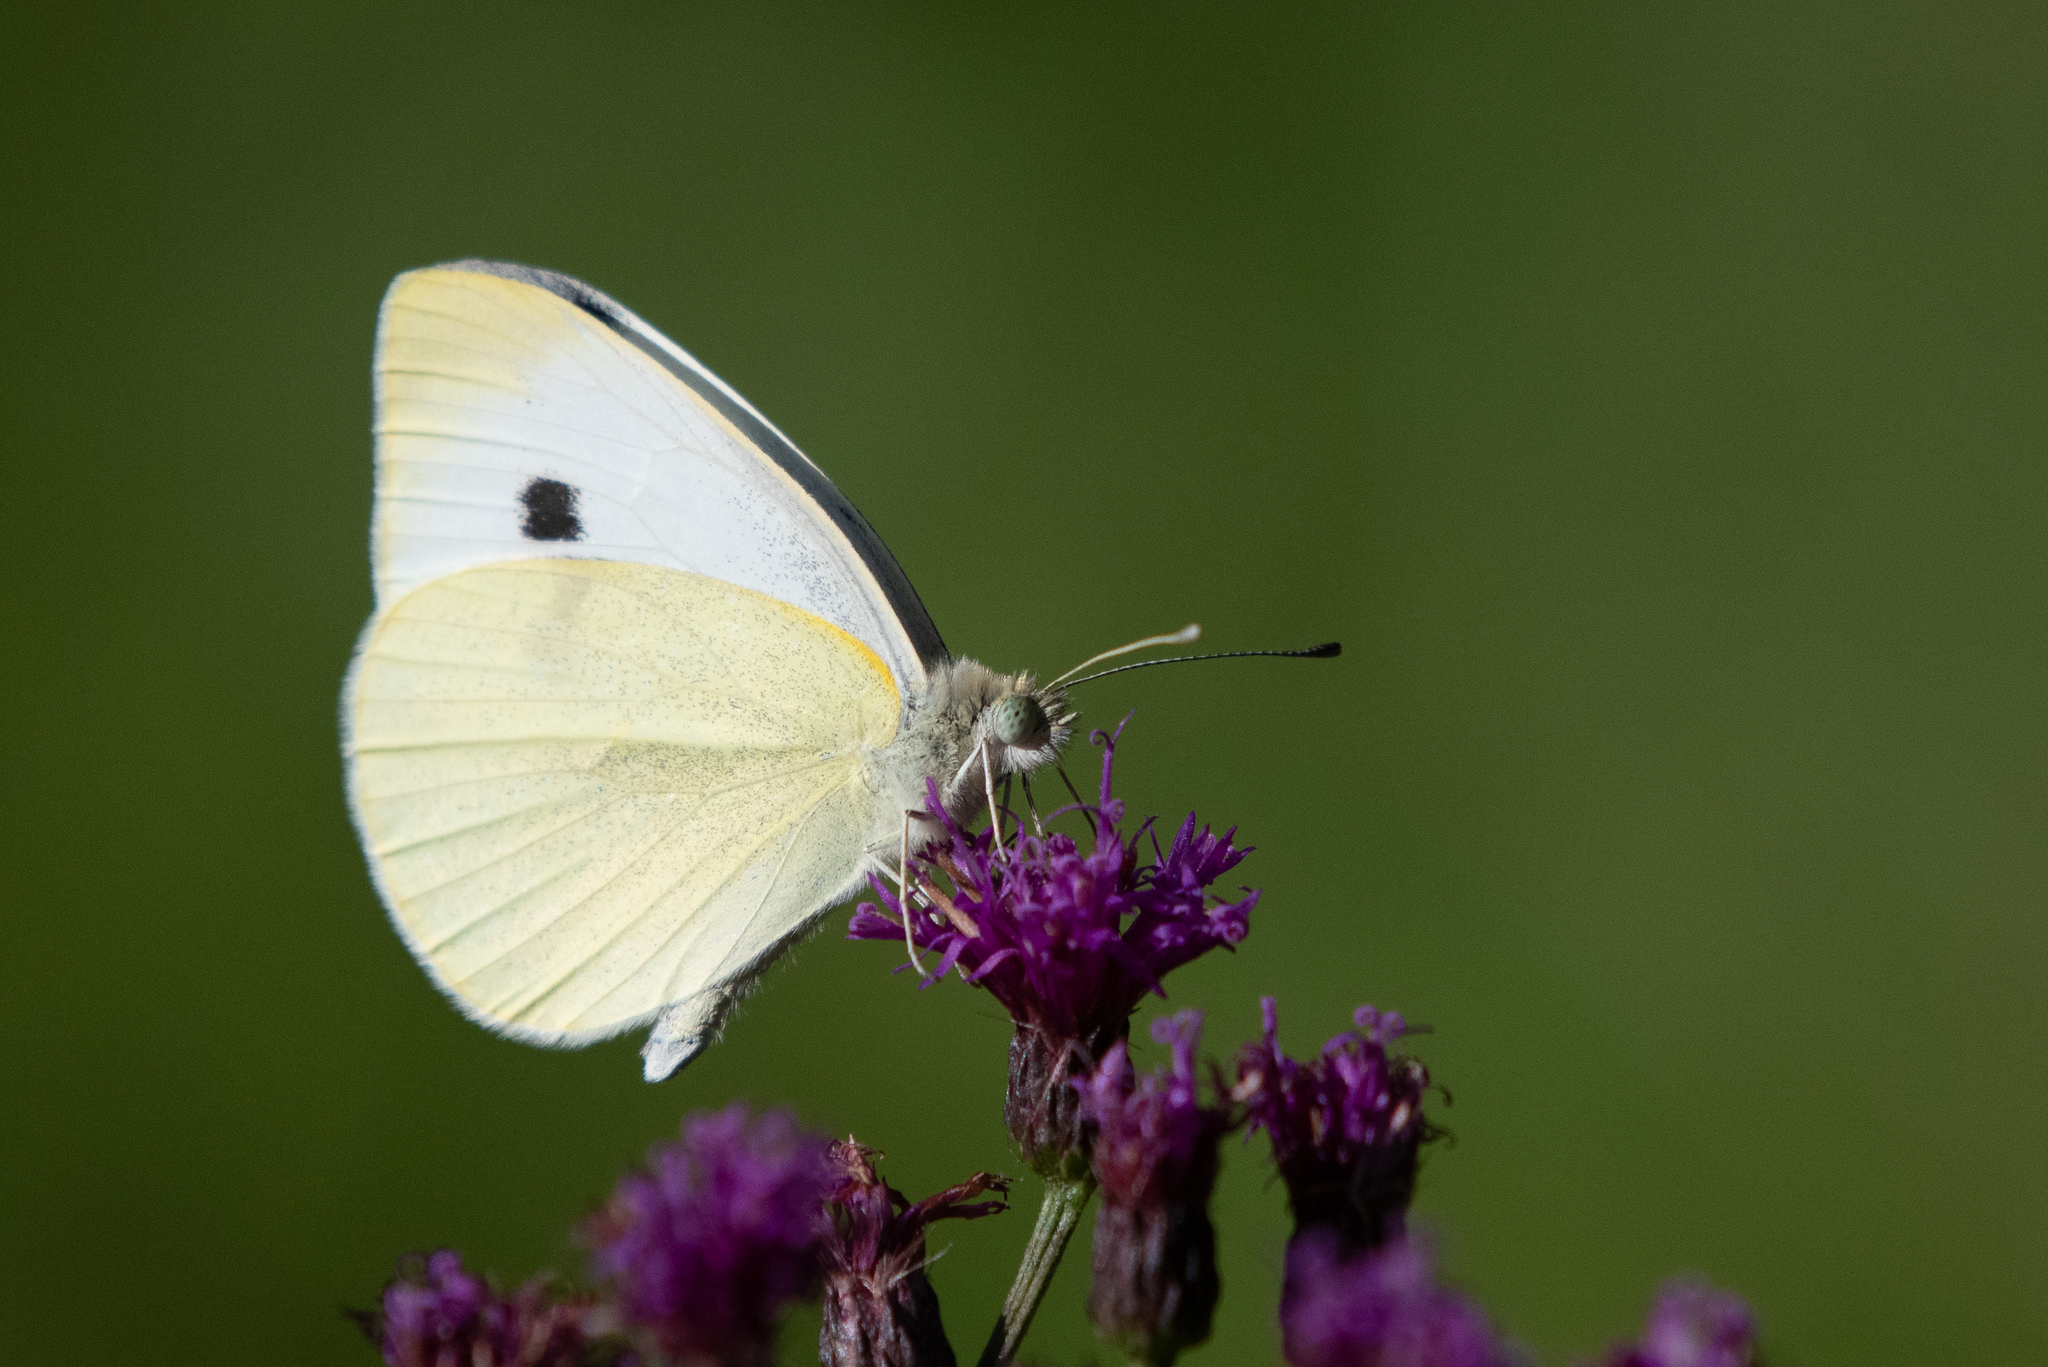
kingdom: Animalia
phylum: Arthropoda
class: Insecta
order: Lepidoptera
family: Pieridae
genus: Pieris
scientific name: Pieris rapae
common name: Small white
